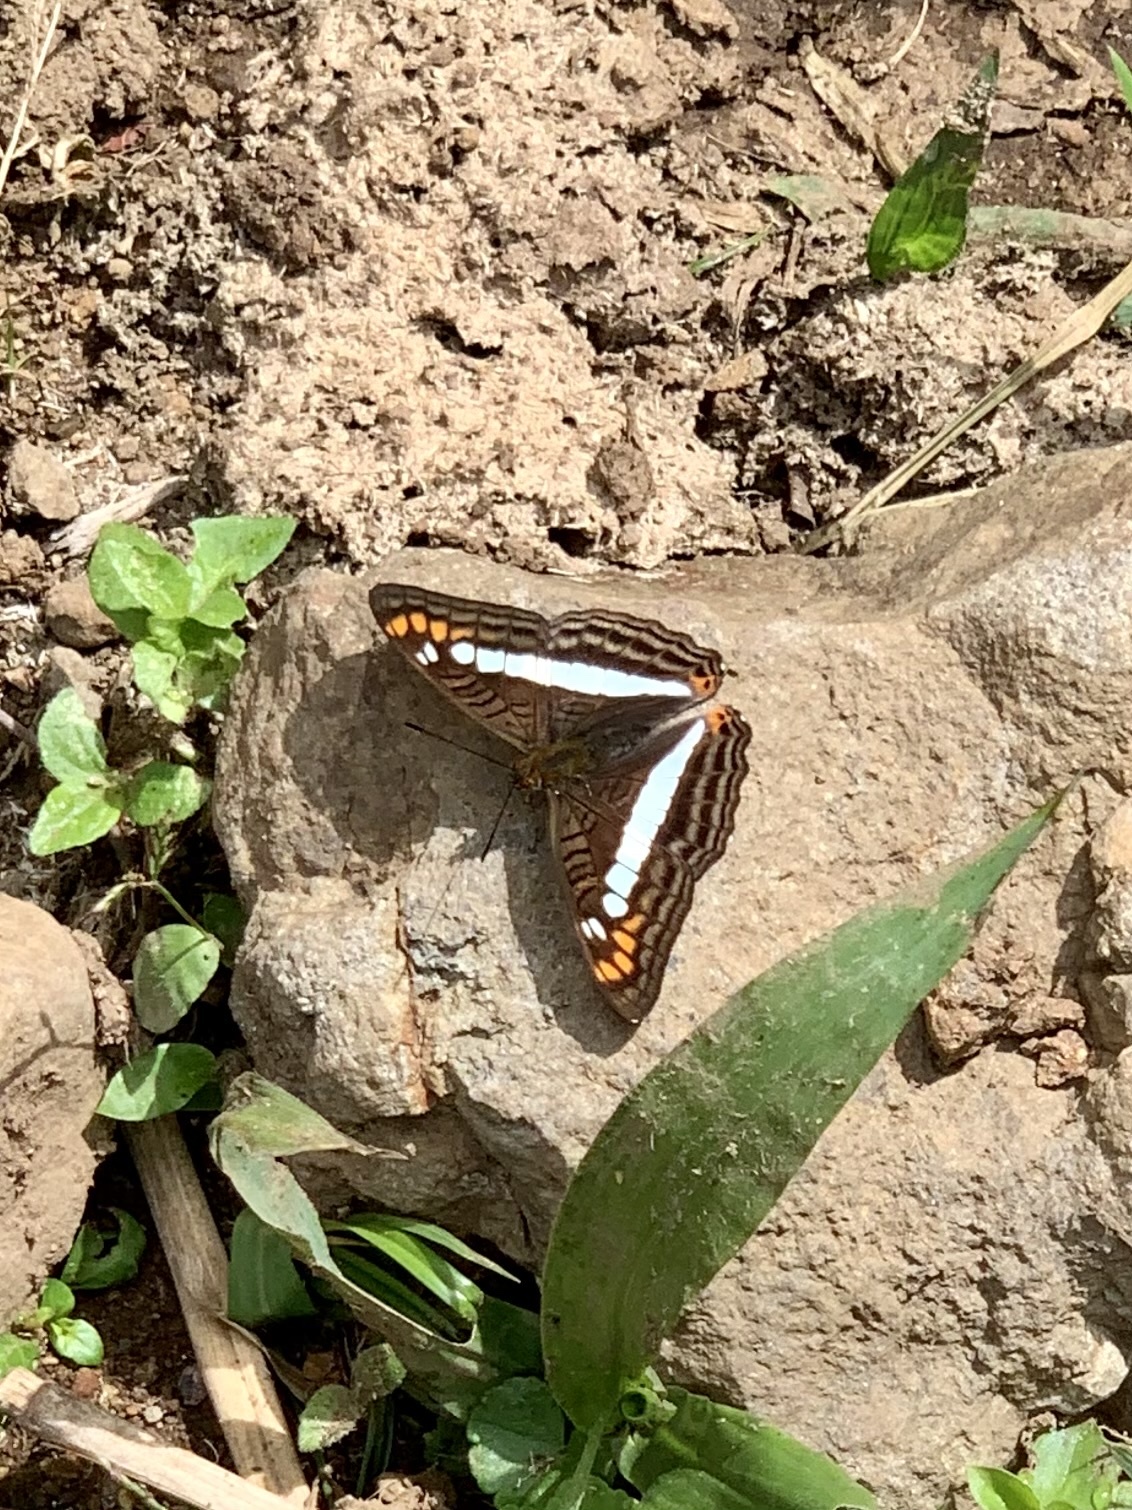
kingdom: Animalia
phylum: Arthropoda
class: Insecta
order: Lepidoptera
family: Nymphalidae
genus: Limenitis
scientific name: Limenitis alala
